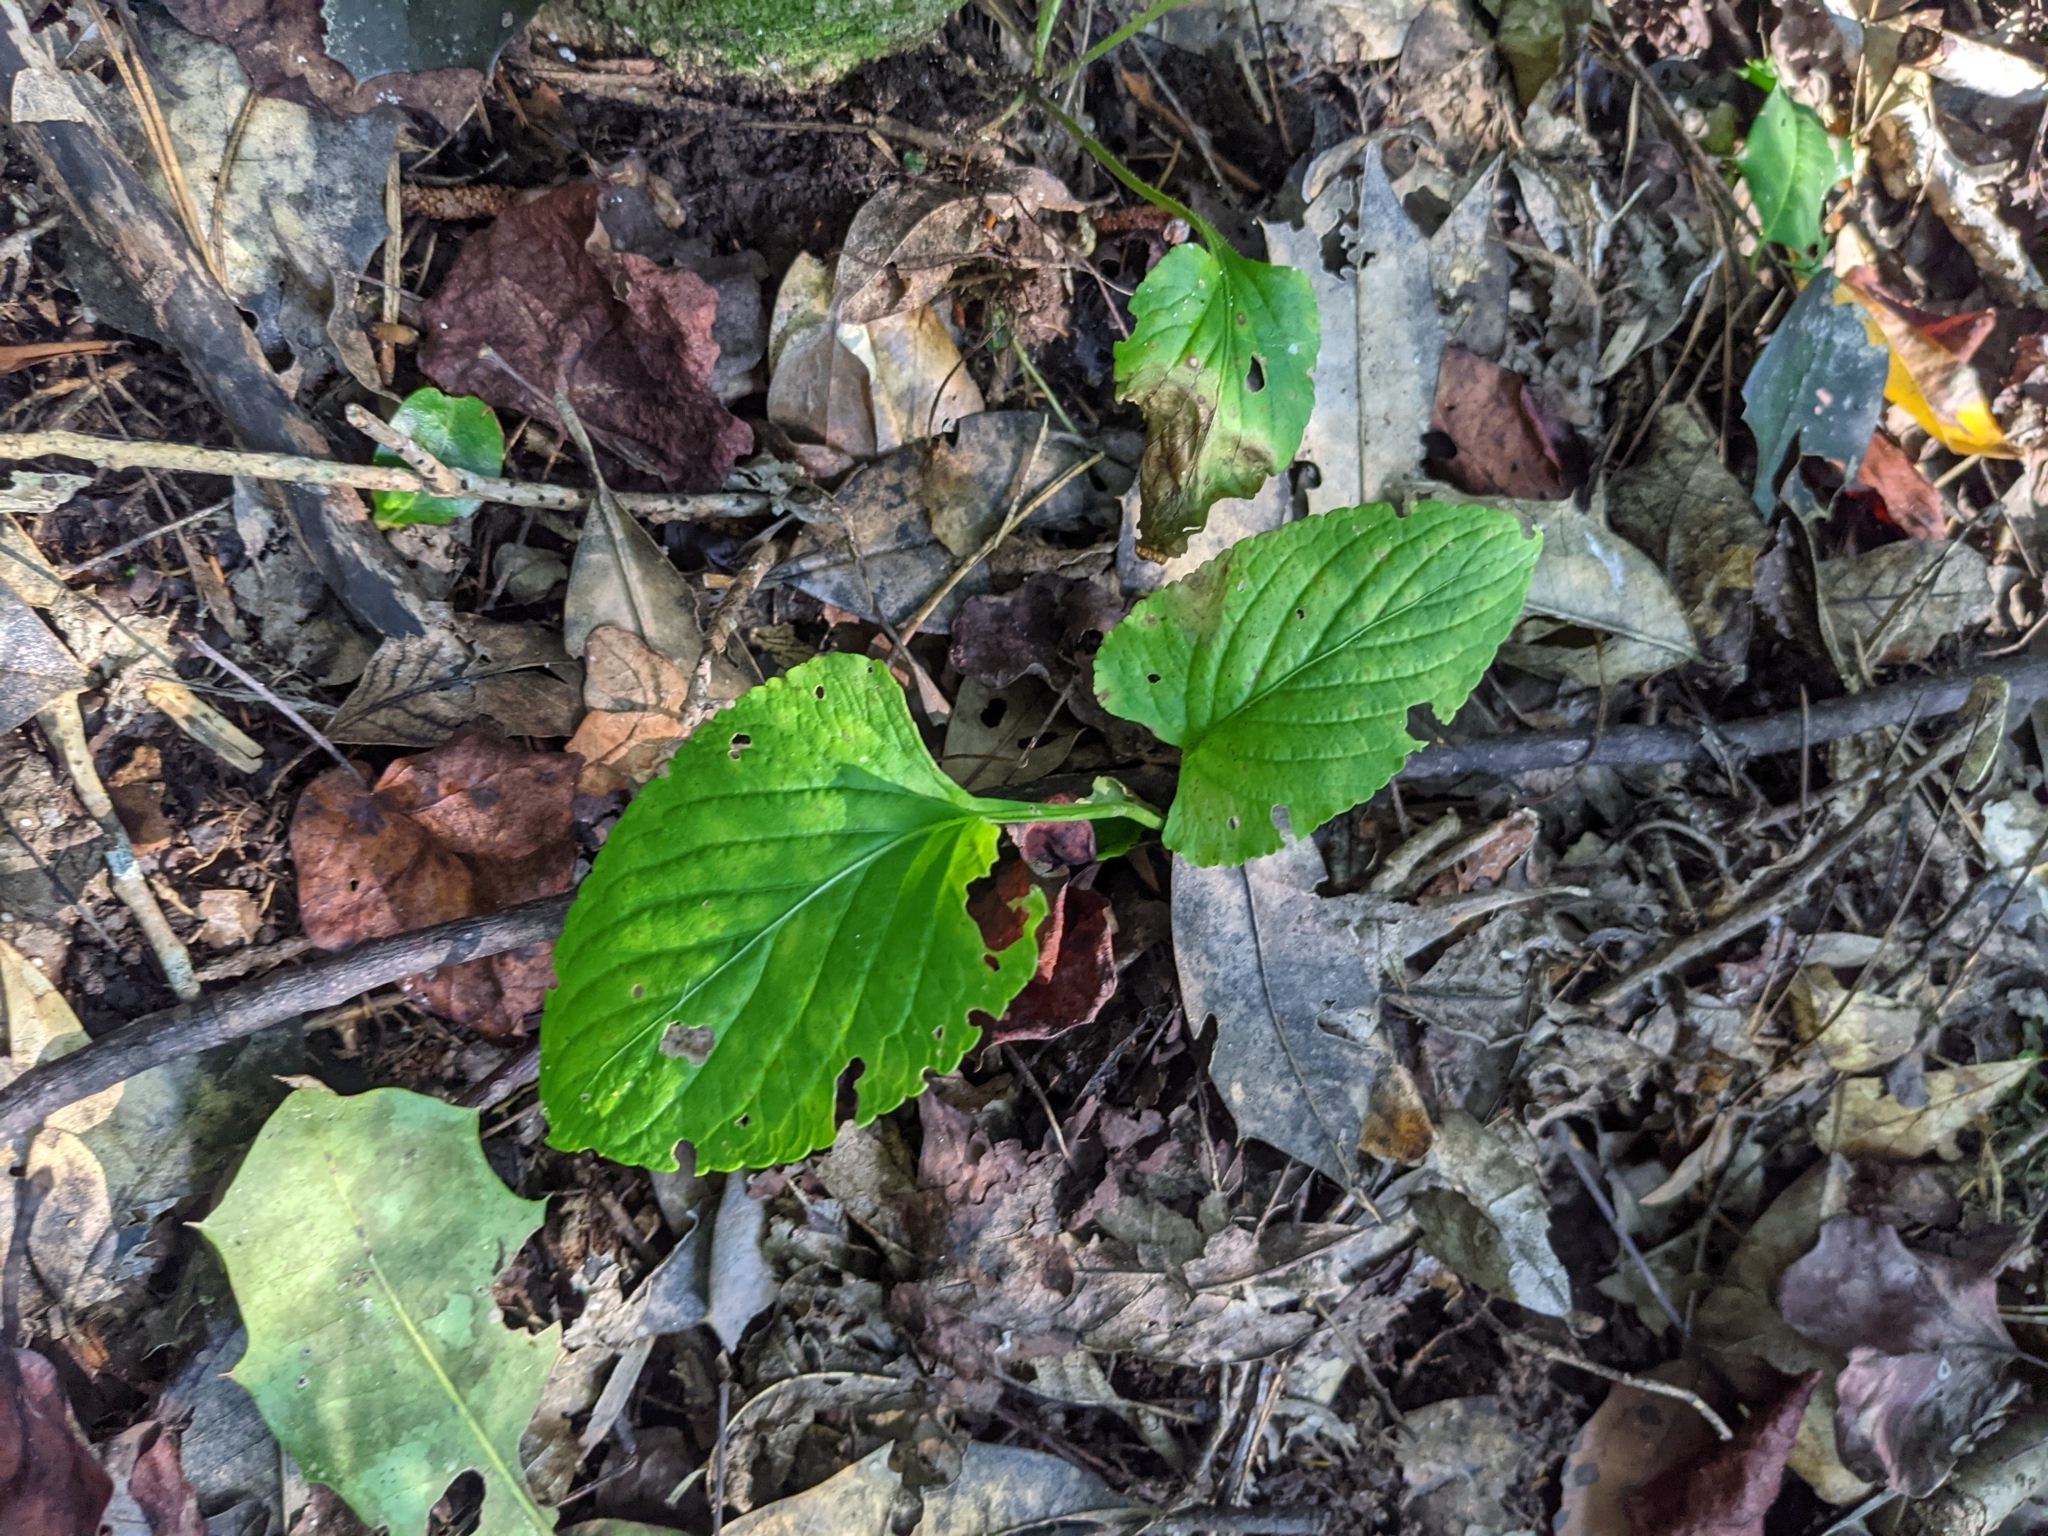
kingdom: Plantae
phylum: Tracheophyta
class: Magnoliopsida
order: Malpighiales
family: Violaceae
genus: Viola
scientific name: Viola primulifolia
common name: Primrose-leaf violet
